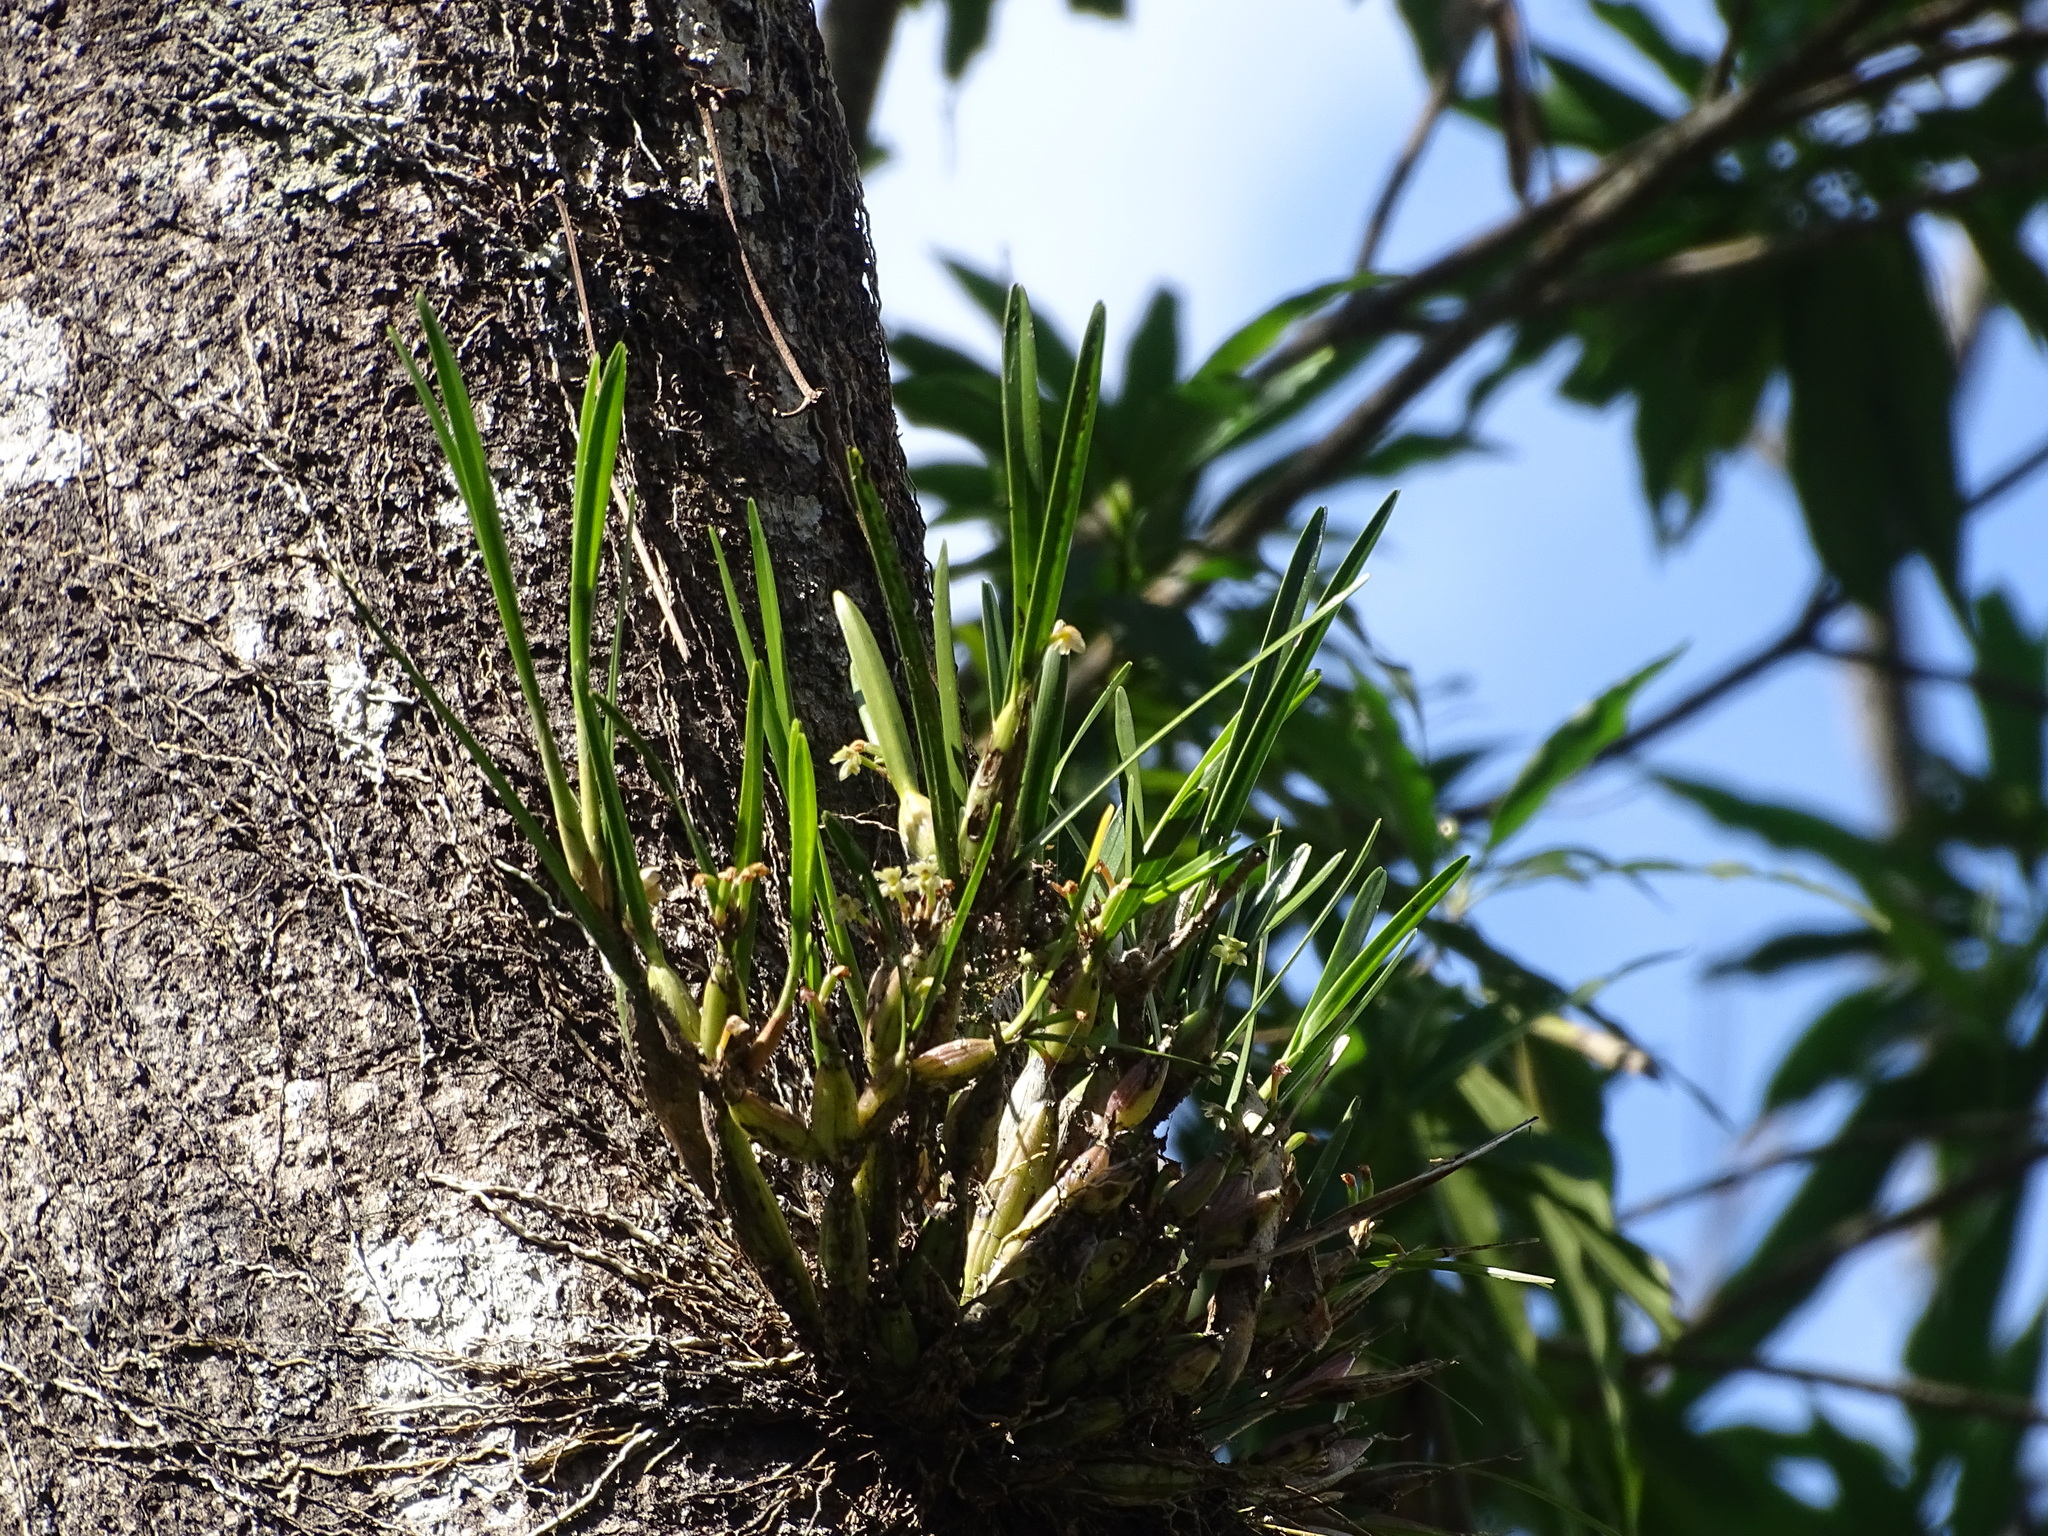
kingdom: Plantae
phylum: Tracheophyta
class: Liliopsida
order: Asparagales
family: Orchidaceae
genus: Scaphyglottis
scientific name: Scaphyglottis fasciculata
